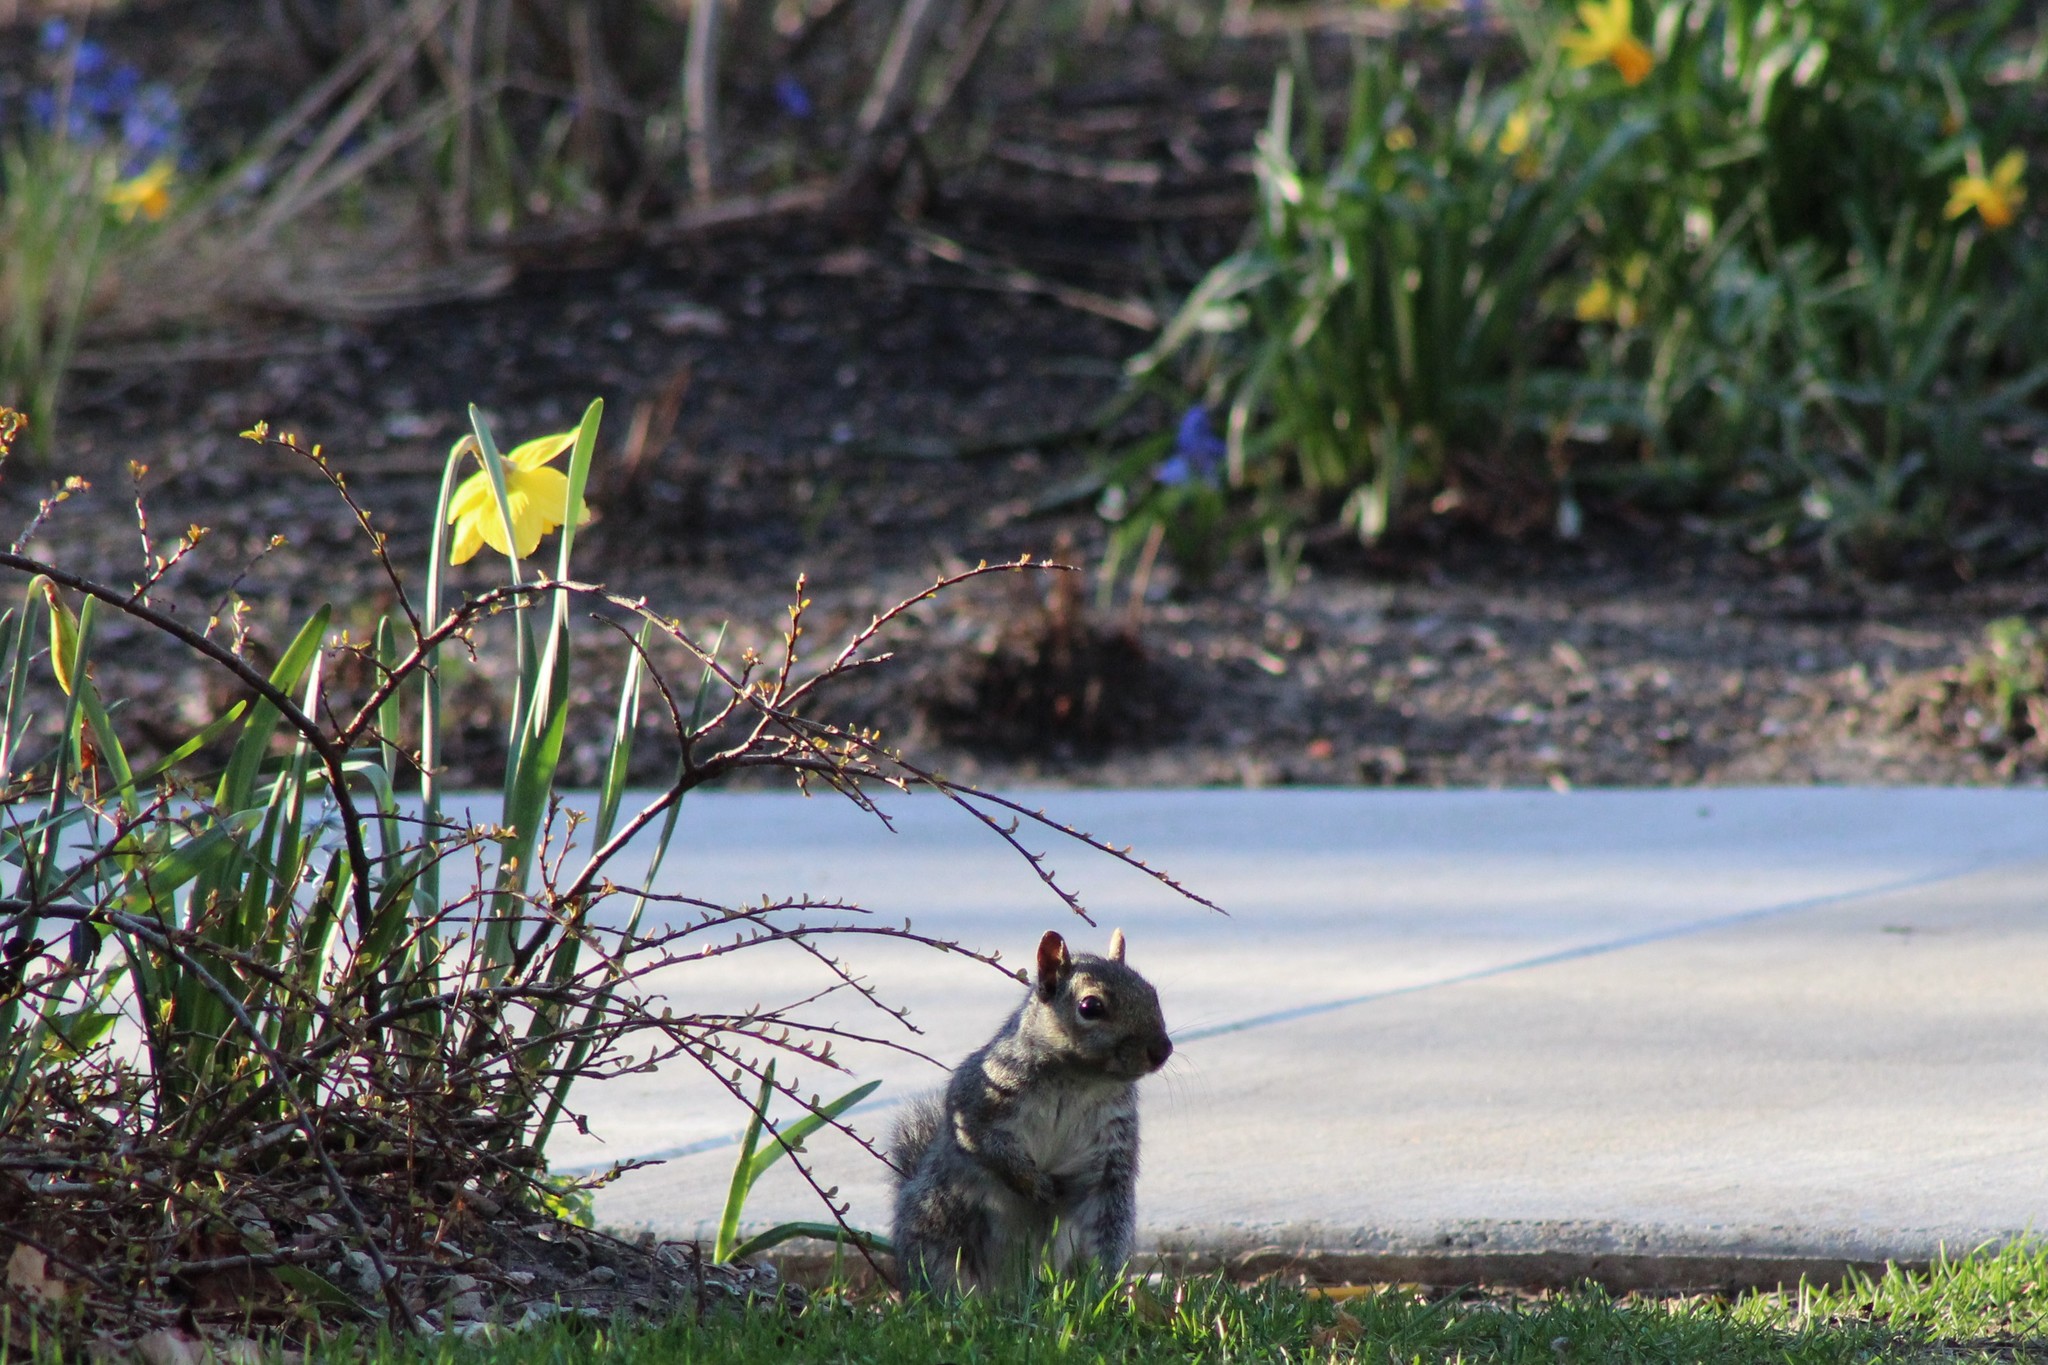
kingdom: Animalia
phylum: Chordata
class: Mammalia
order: Rodentia
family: Sciuridae
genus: Sciurus
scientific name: Sciurus carolinensis
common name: Eastern gray squirrel
